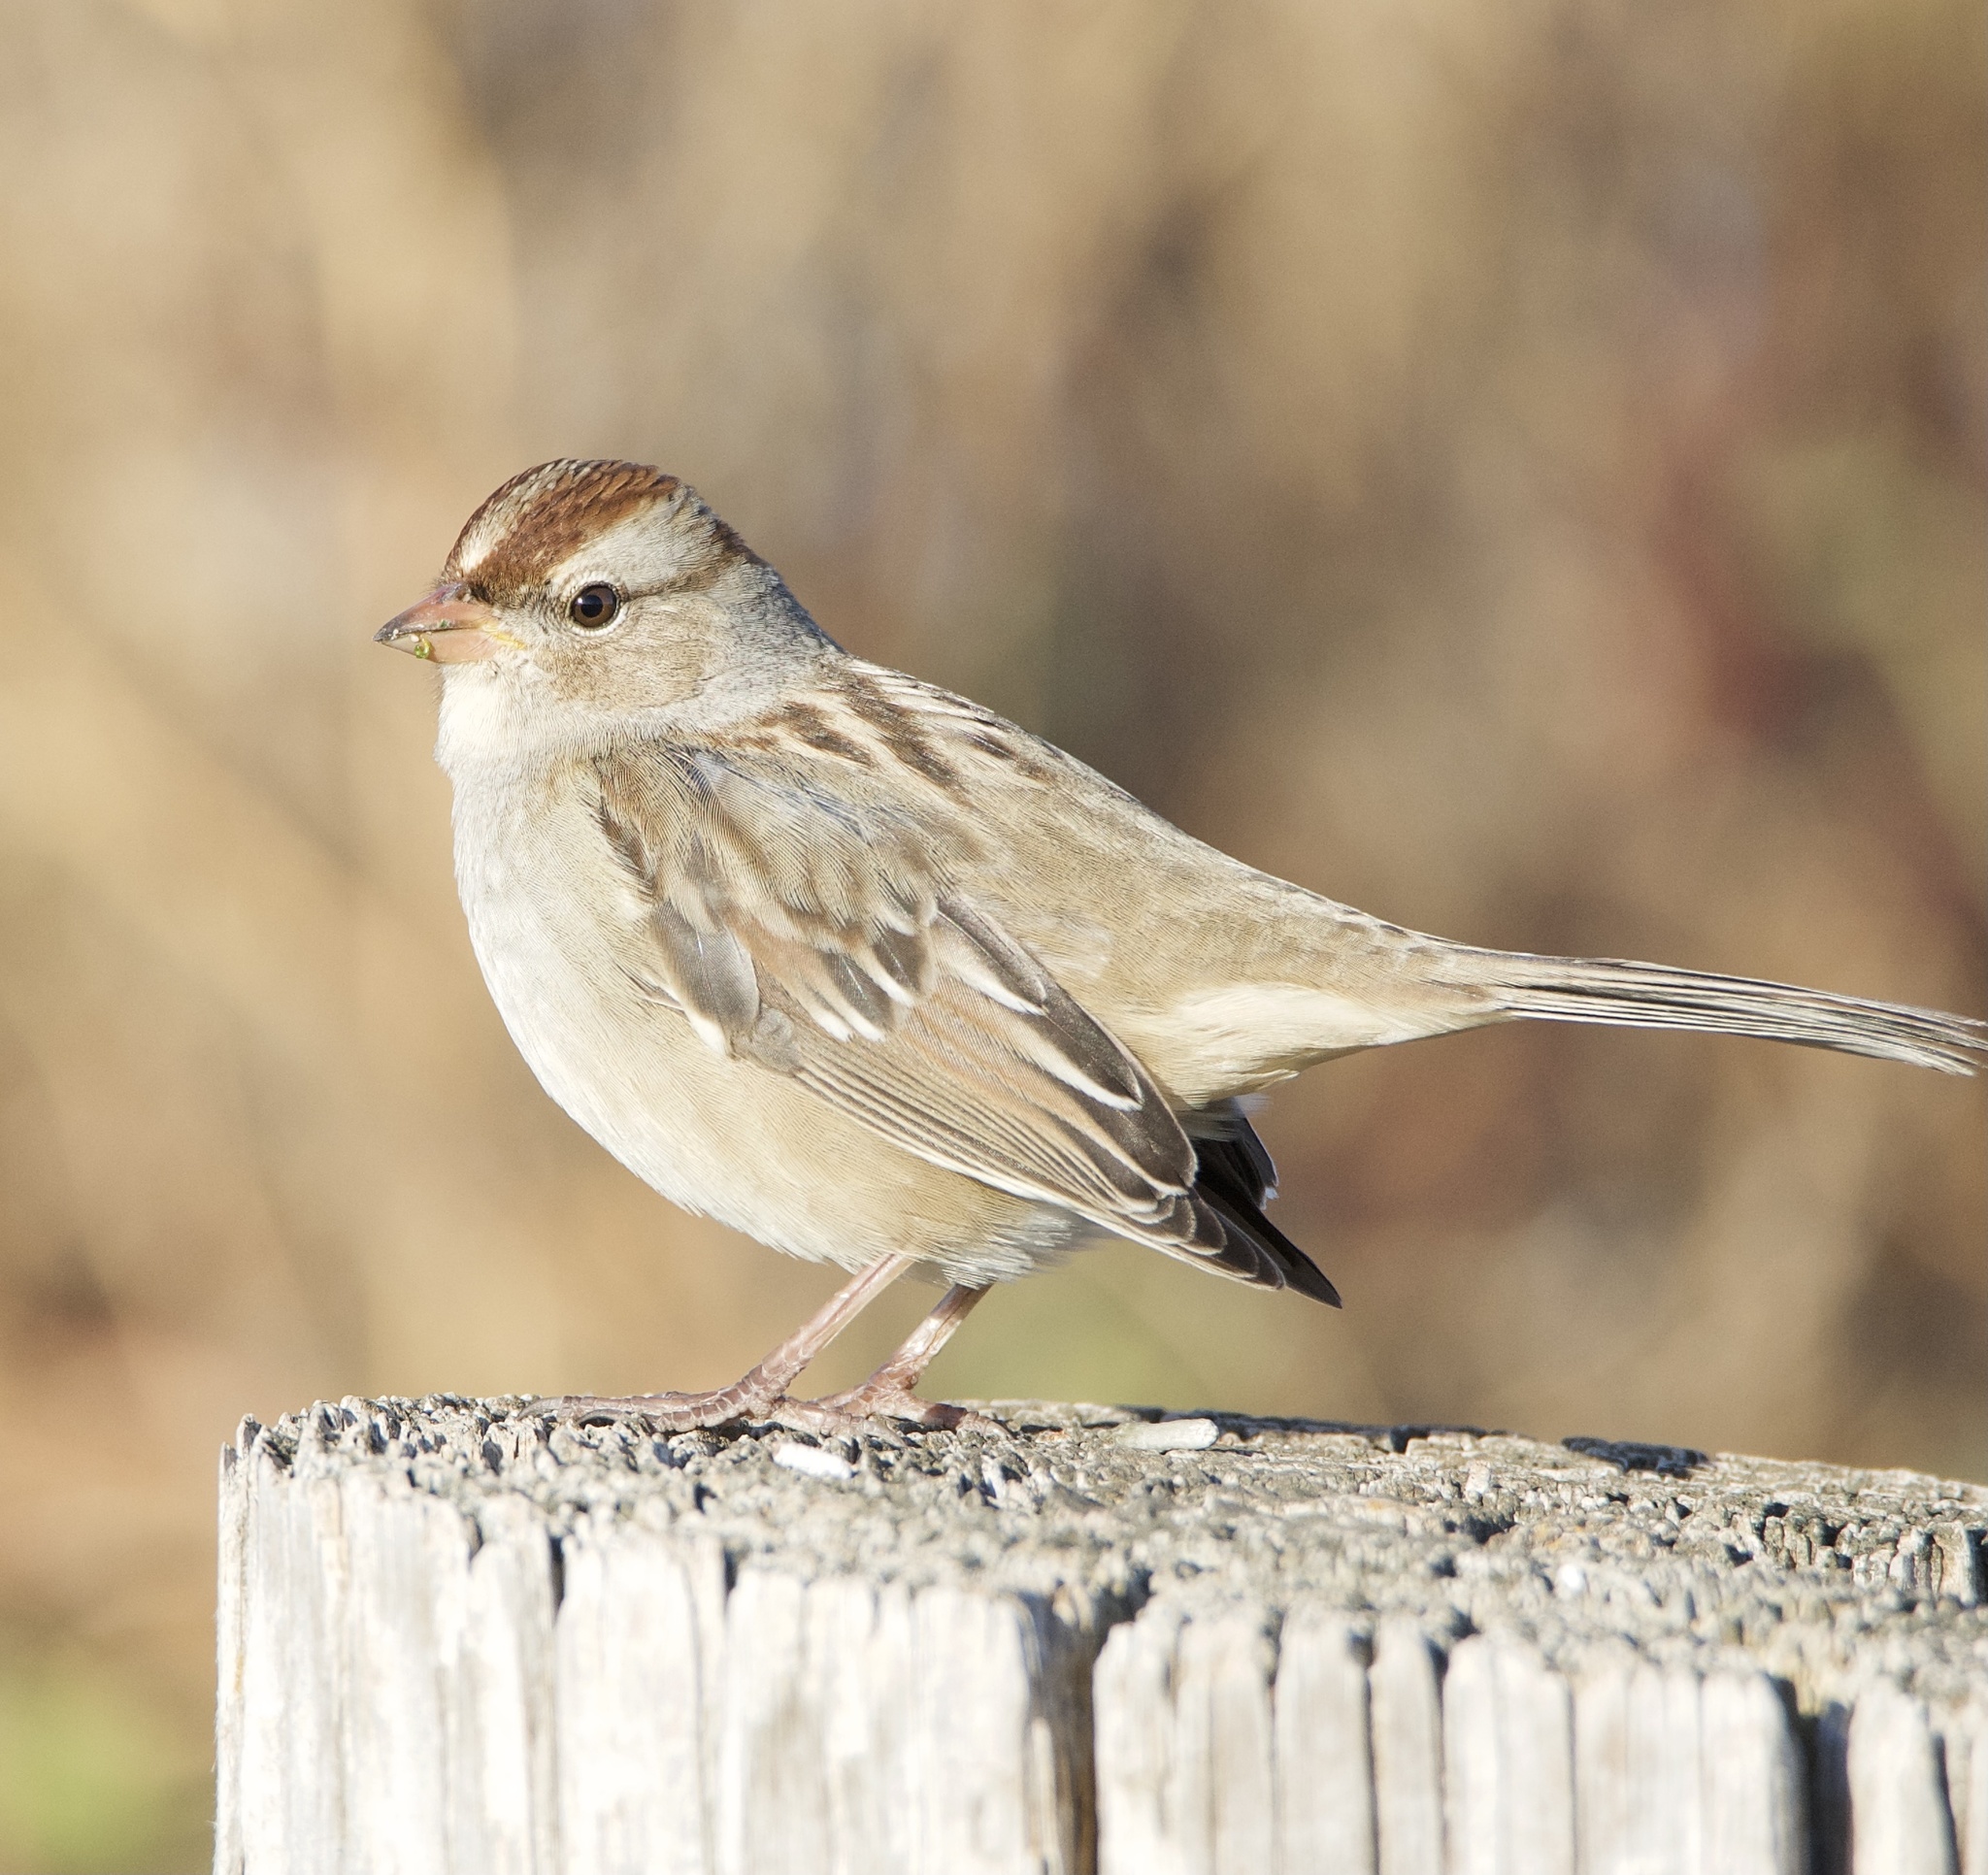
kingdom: Animalia
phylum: Chordata
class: Aves
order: Passeriformes
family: Passerellidae
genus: Zonotrichia
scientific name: Zonotrichia leucophrys
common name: White-crowned sparrow
